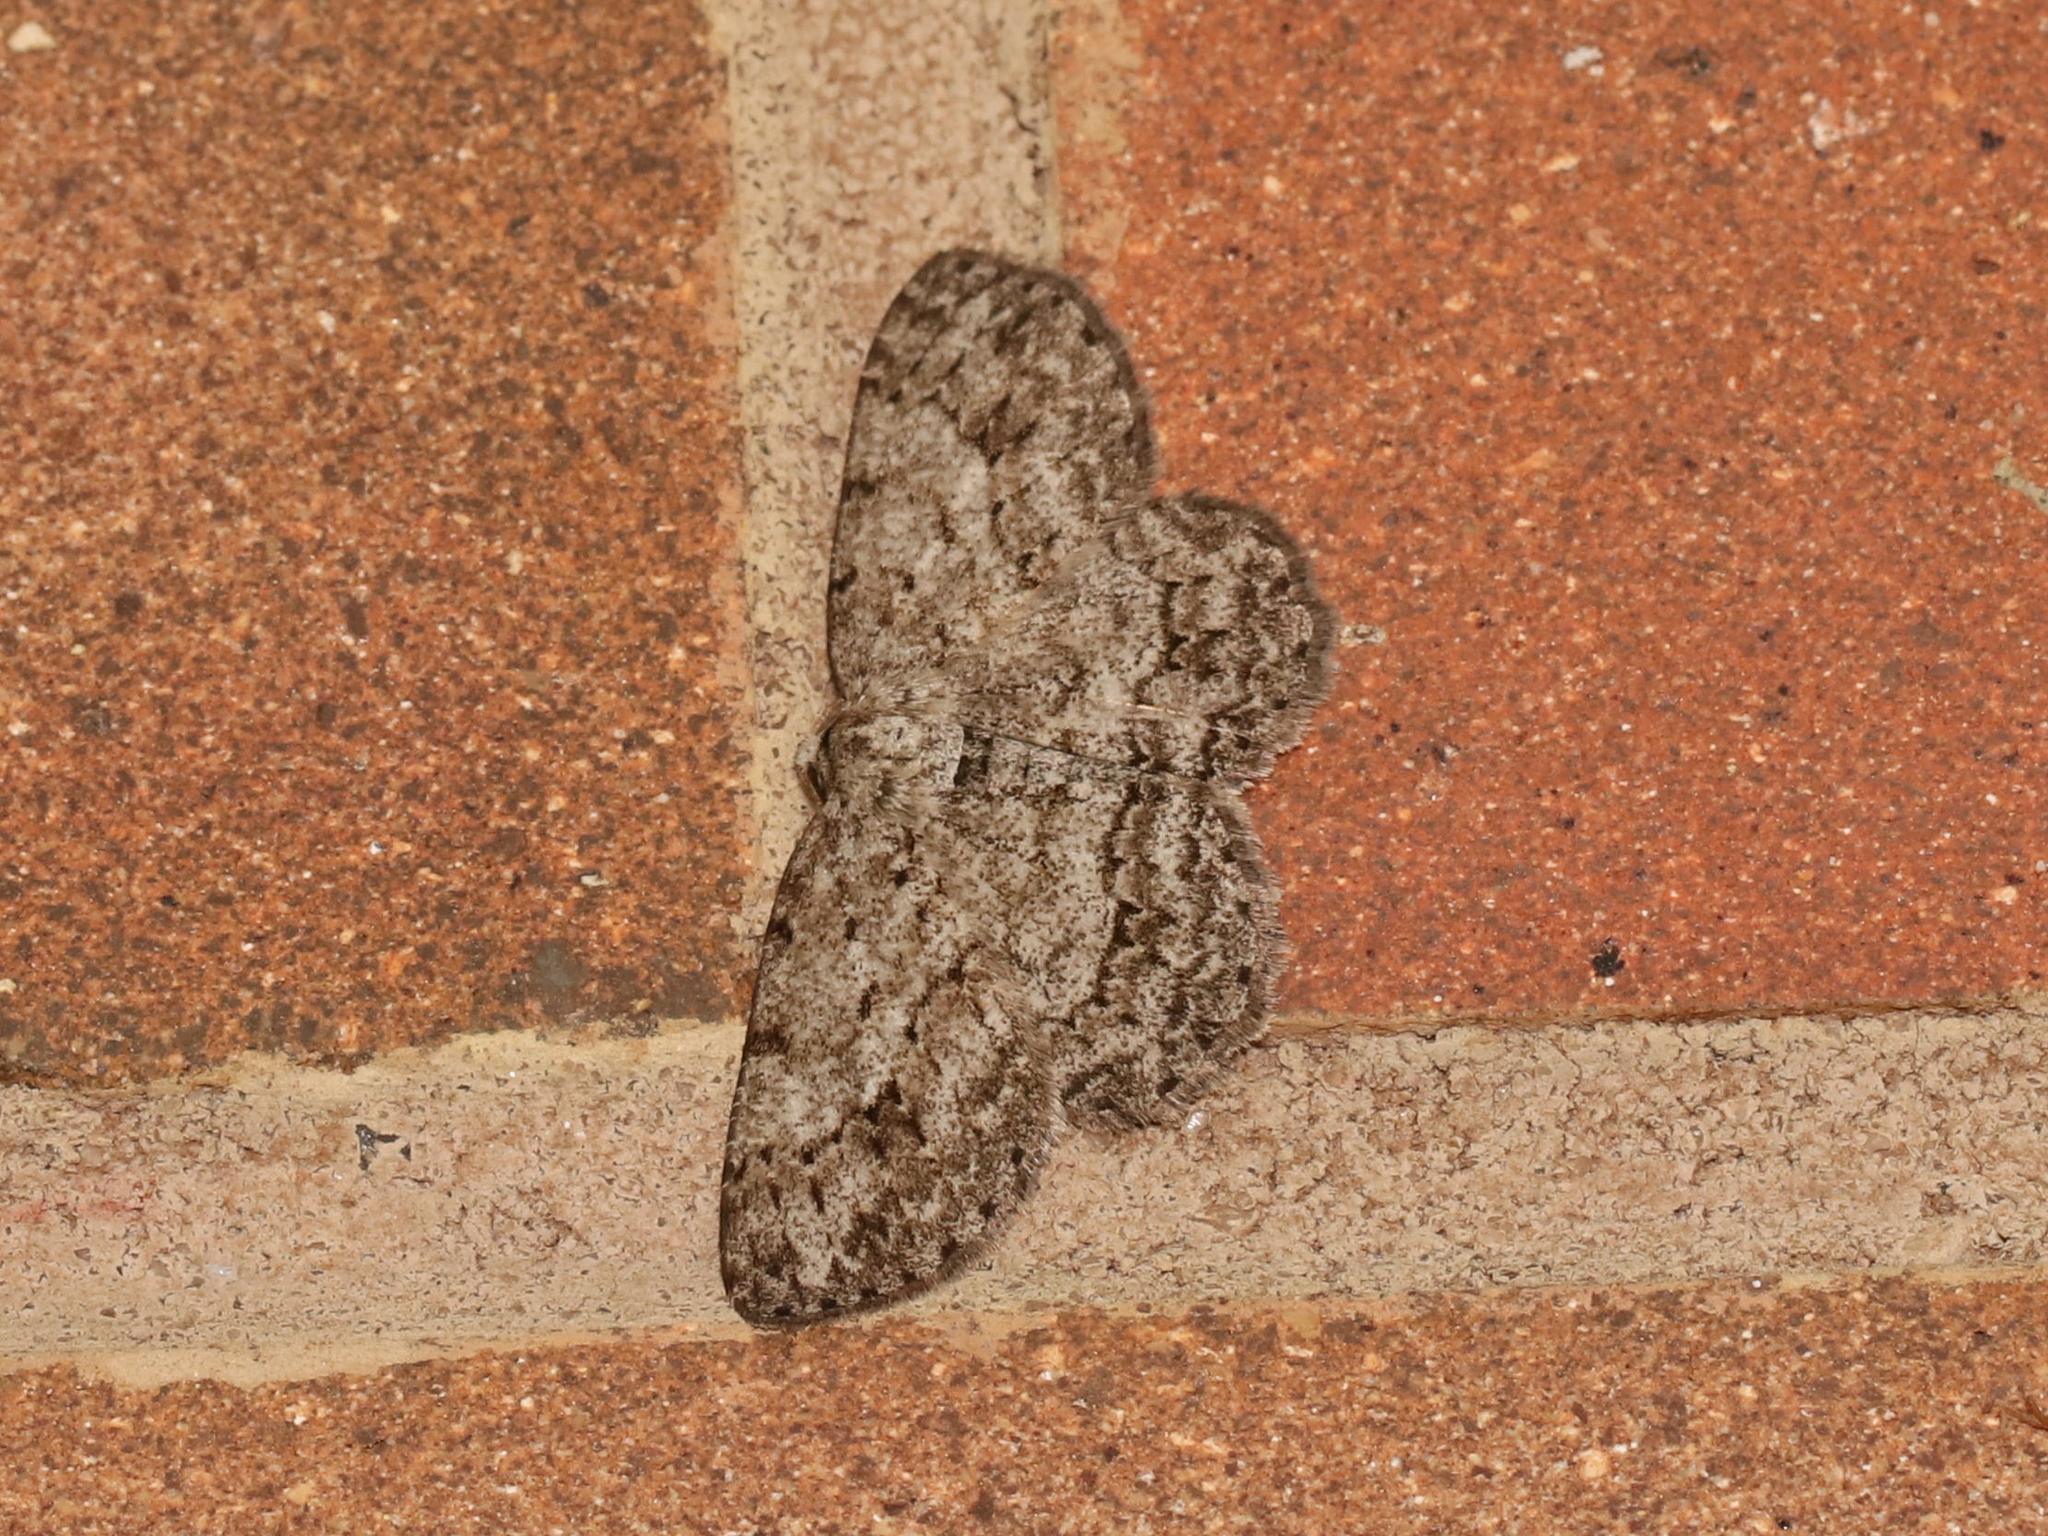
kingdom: Animalia
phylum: Arthropoda
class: Insecta
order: Lepidoptera
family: Geometridae
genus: Ectropis
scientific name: Ectropis crepuscularia
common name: Engrailed
